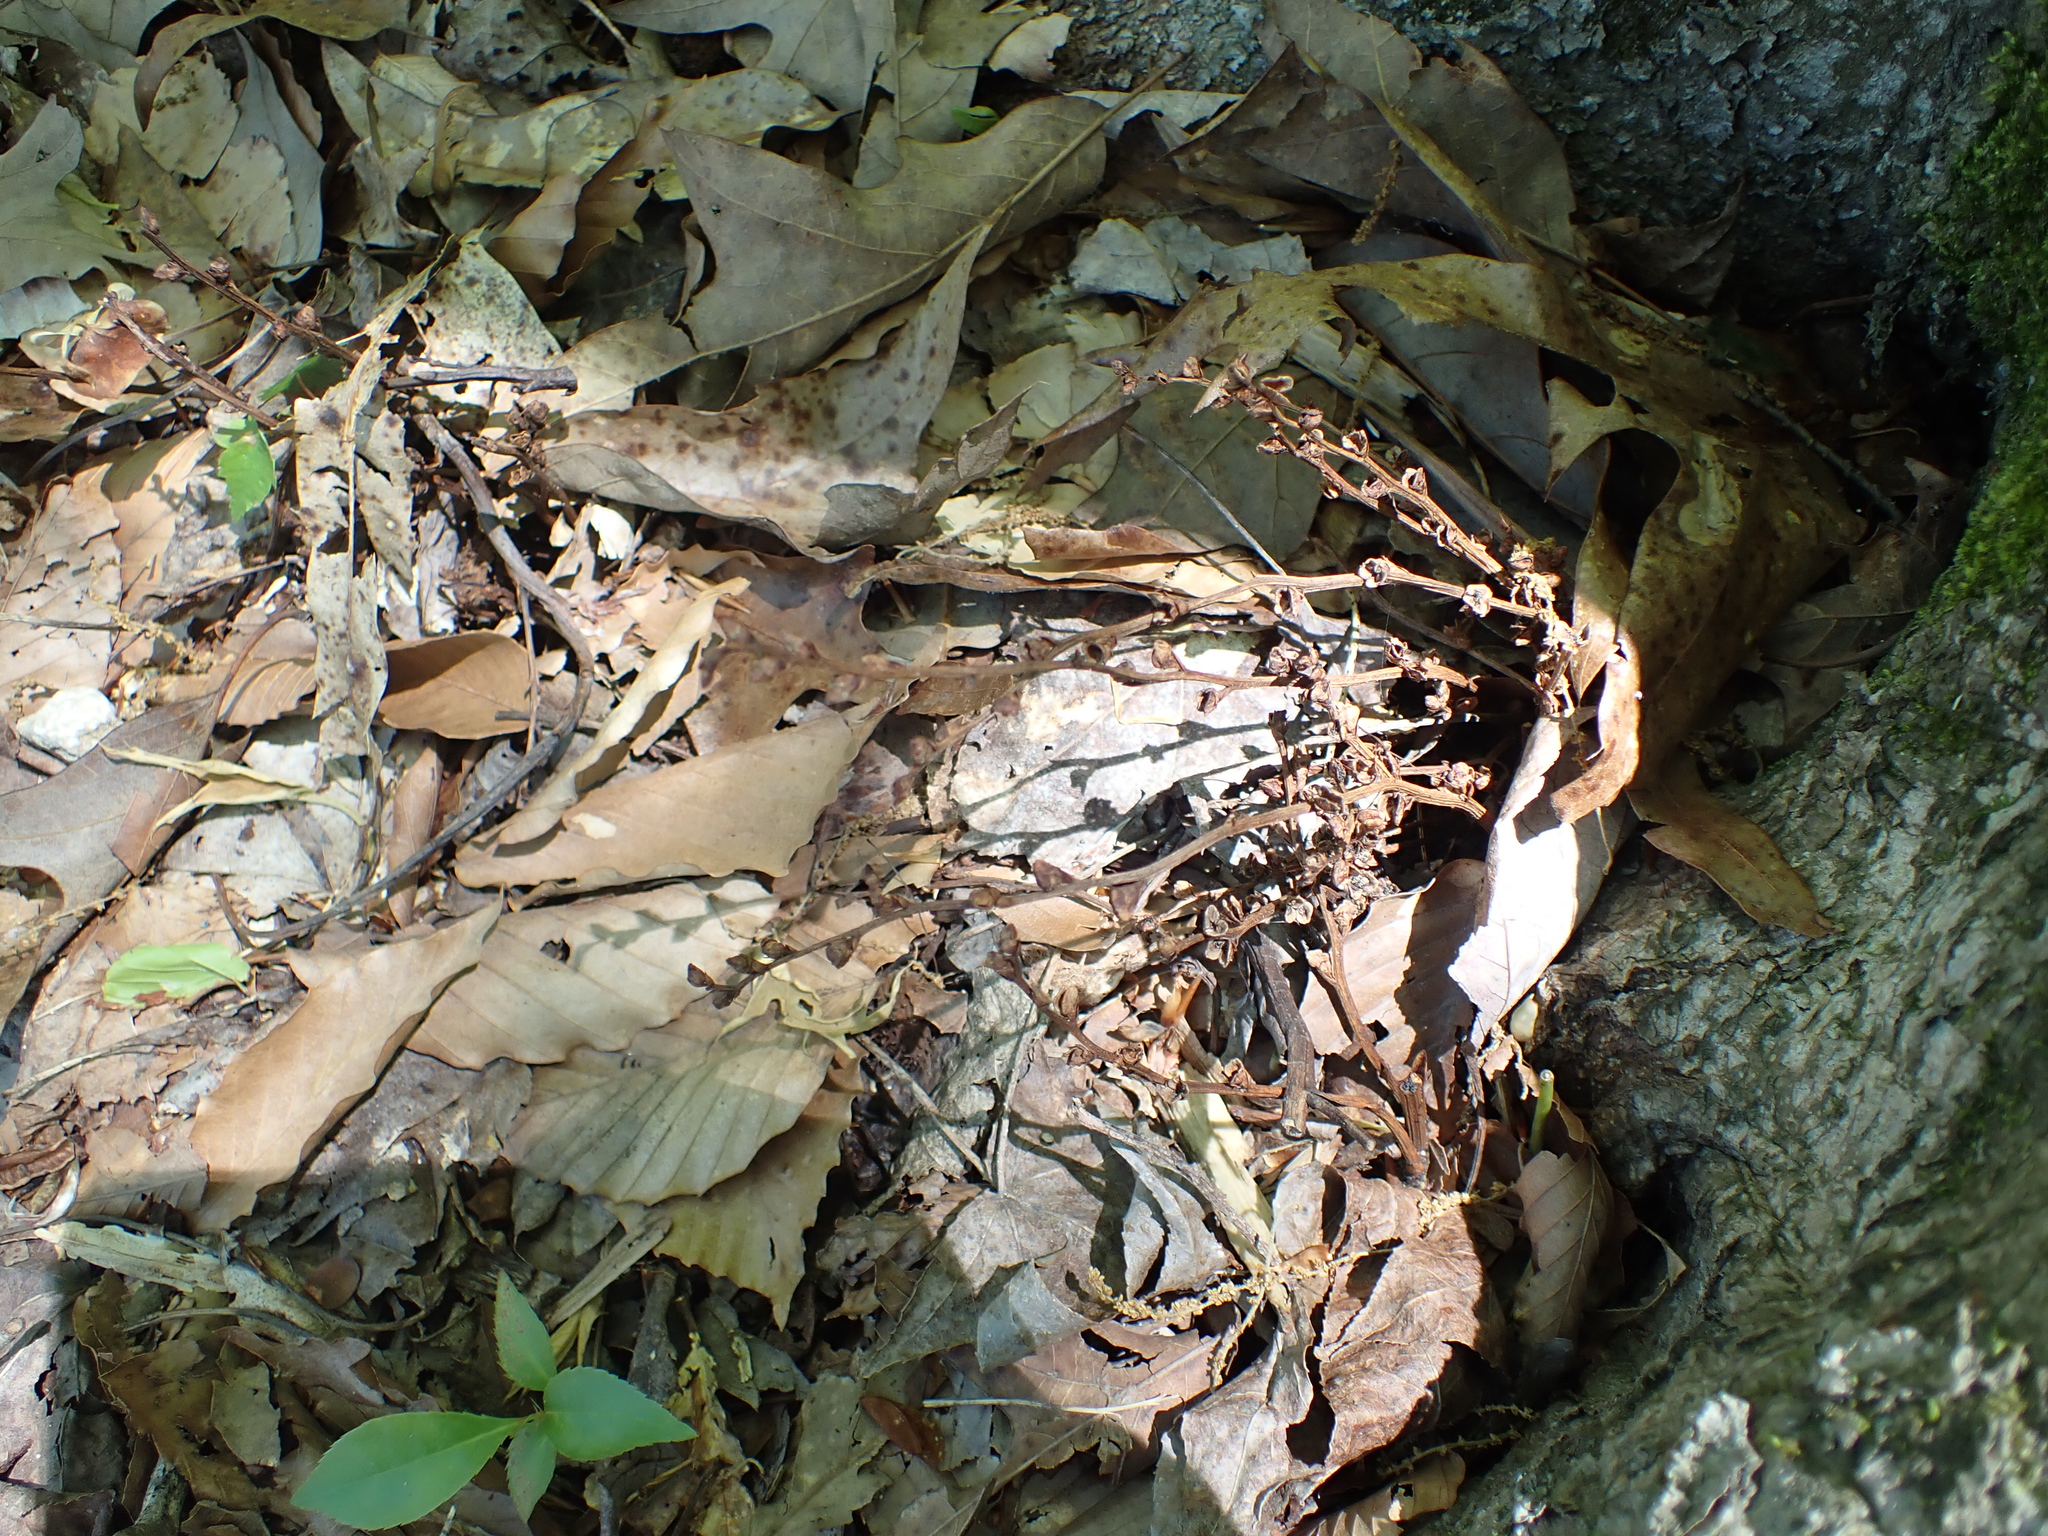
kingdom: Plantae
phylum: Tracheophyta
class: Magnoliopsida
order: Lamiales
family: Orobanchaceae
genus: Epifagus
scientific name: Epifagus virginiana
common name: Beechdrops
